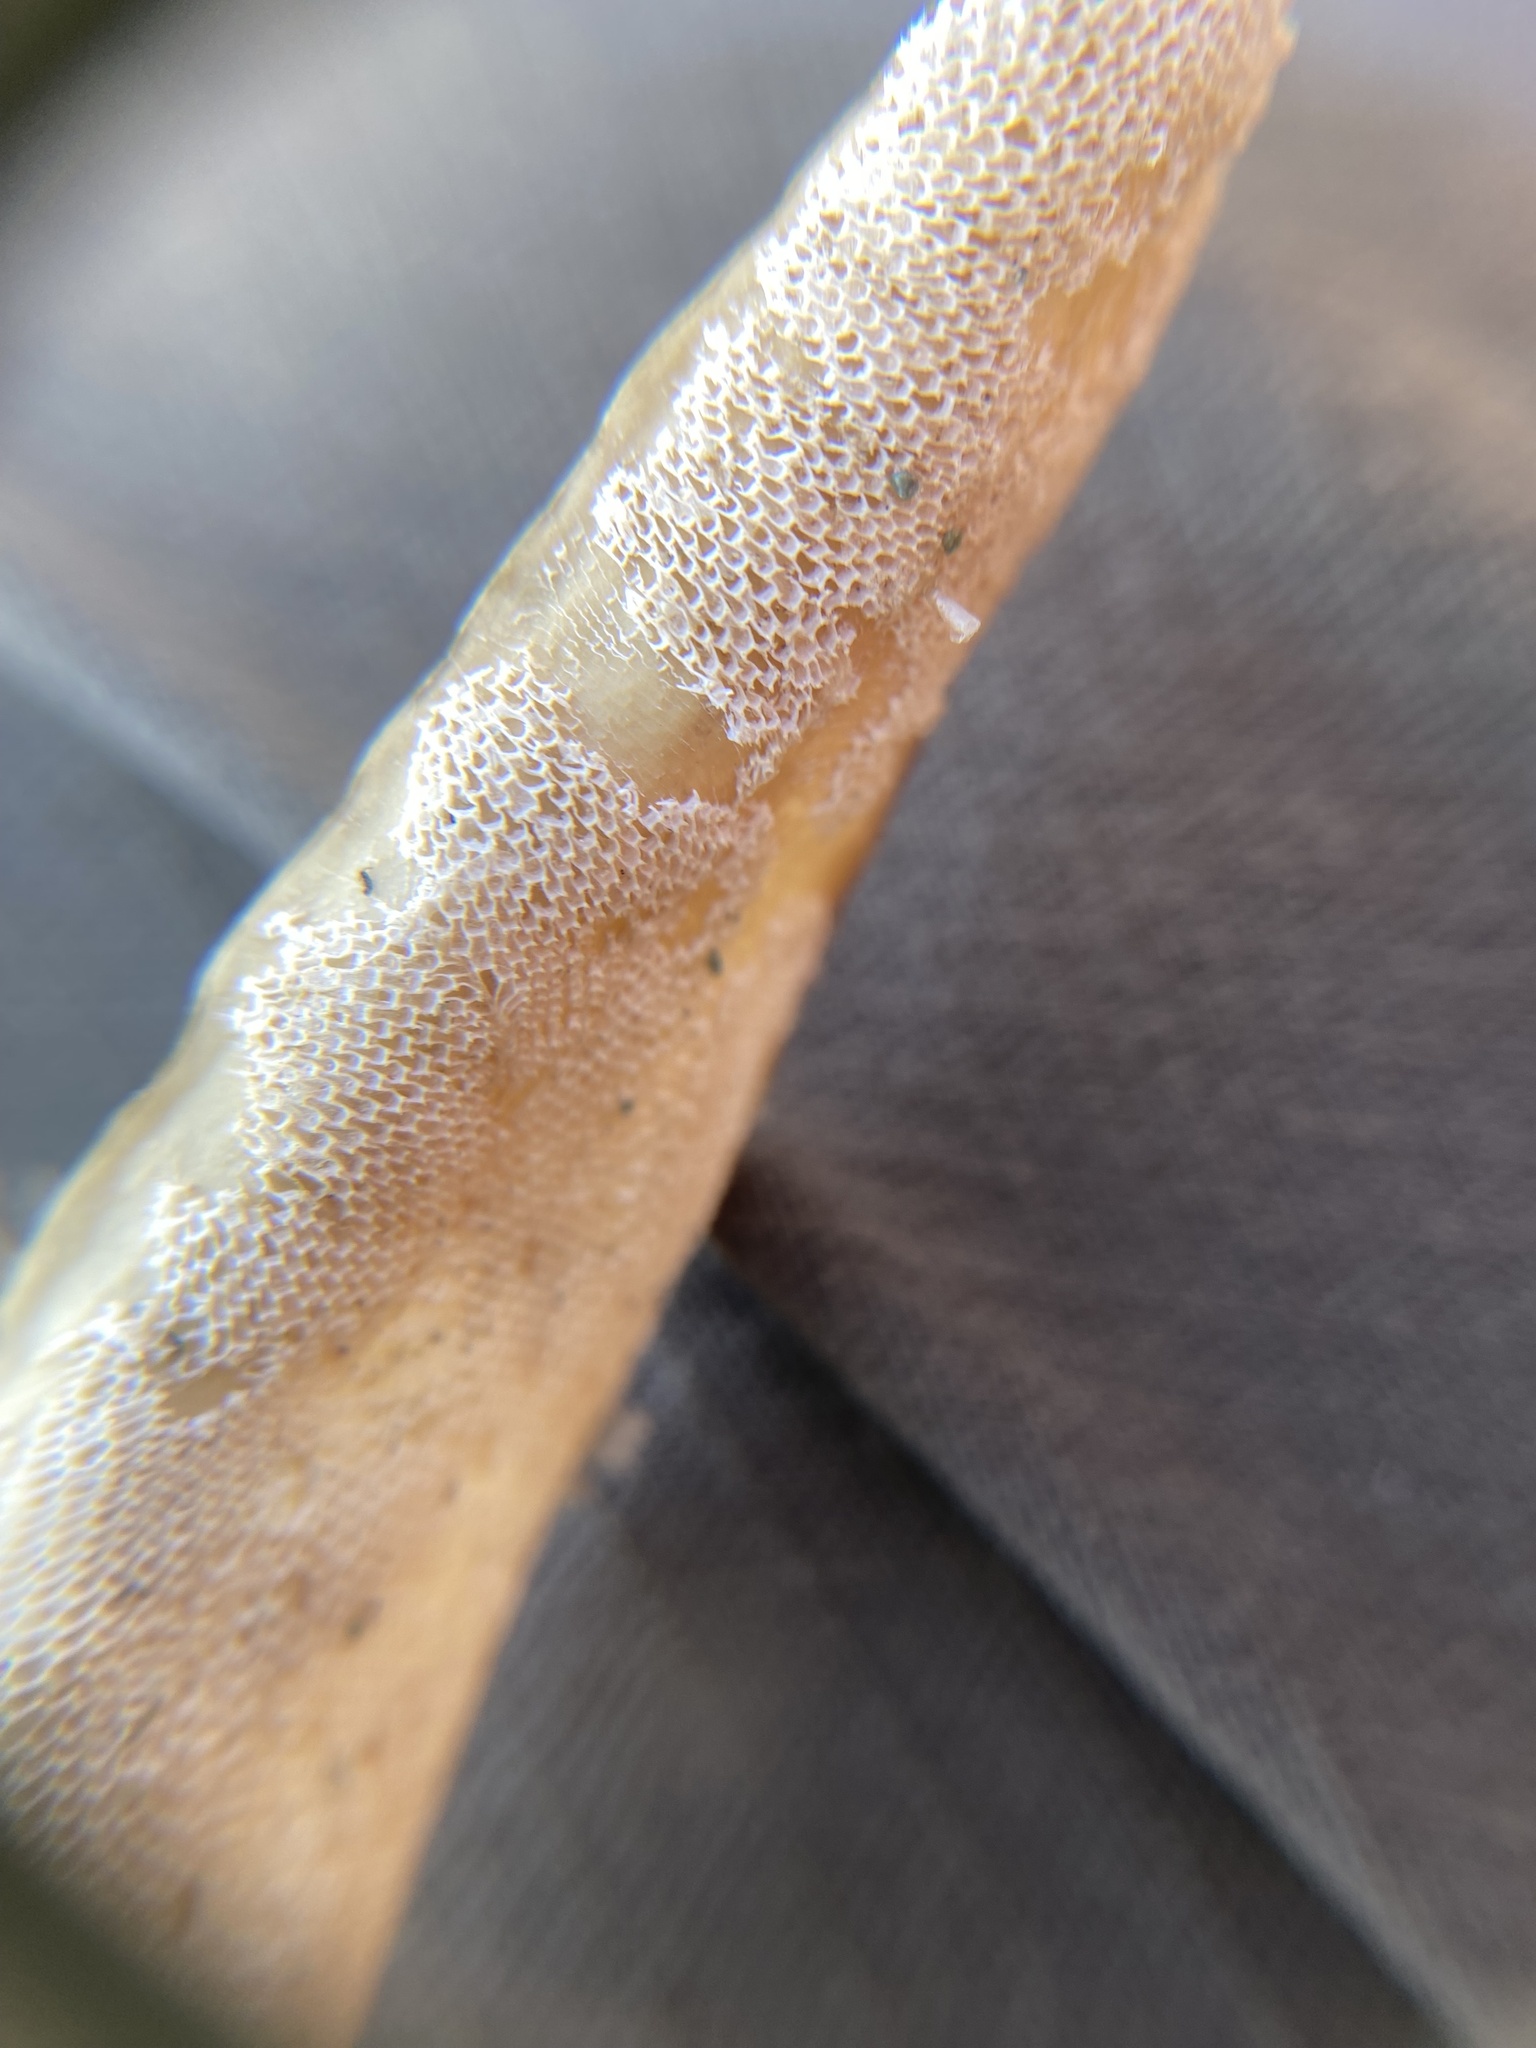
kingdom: Animalia
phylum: Bryozoa
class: Gymnolaemata
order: Cheilostomatida
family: Membraniporidae
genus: Membranipora
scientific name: Membranipora membranacea
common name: Sea mat
